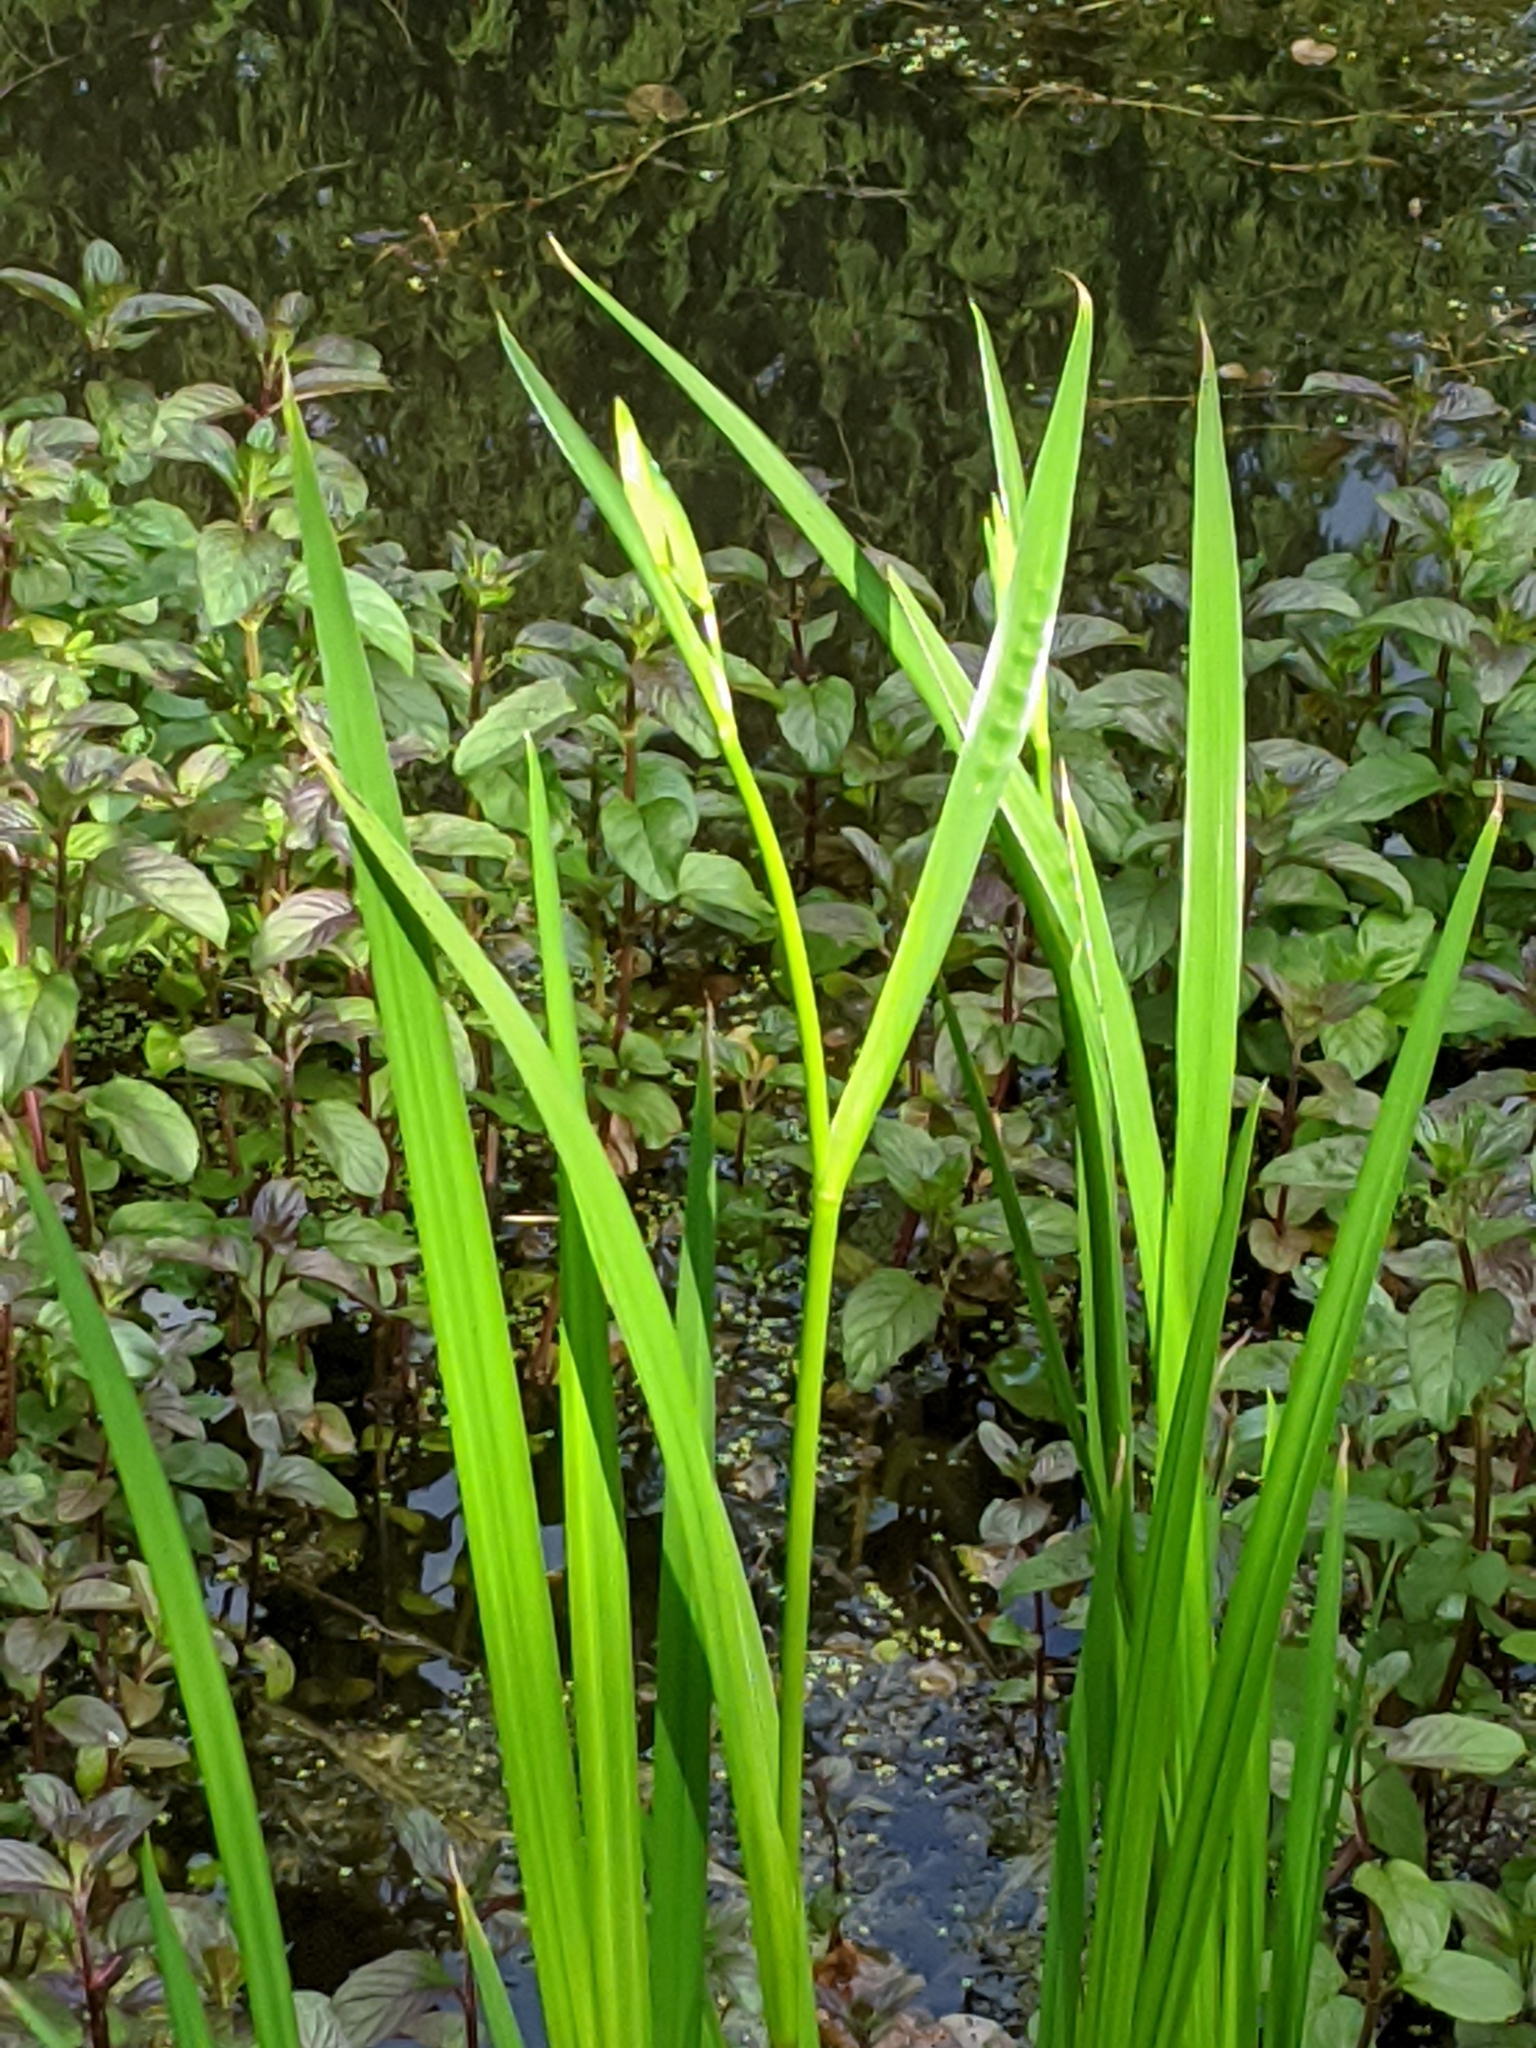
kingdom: Plantae
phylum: Tracheophyta
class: Liliopsida
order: Asparagales
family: Iridaceae
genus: Iris
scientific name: Iris pseudacorus
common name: Yellow flag
